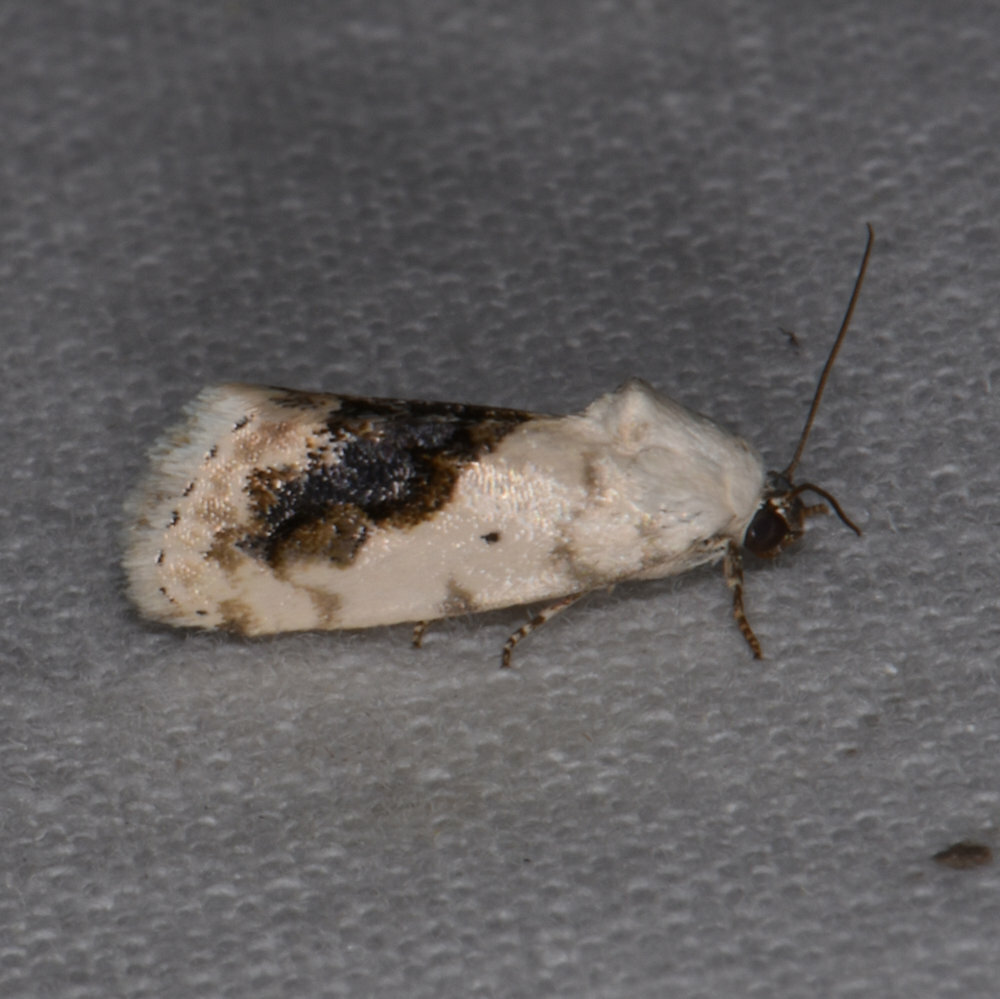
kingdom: Animalia
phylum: Arthropoda
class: Insecta
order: Lepidoptera
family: Noctuidae
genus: Acontia
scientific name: Acontia erastrioides
